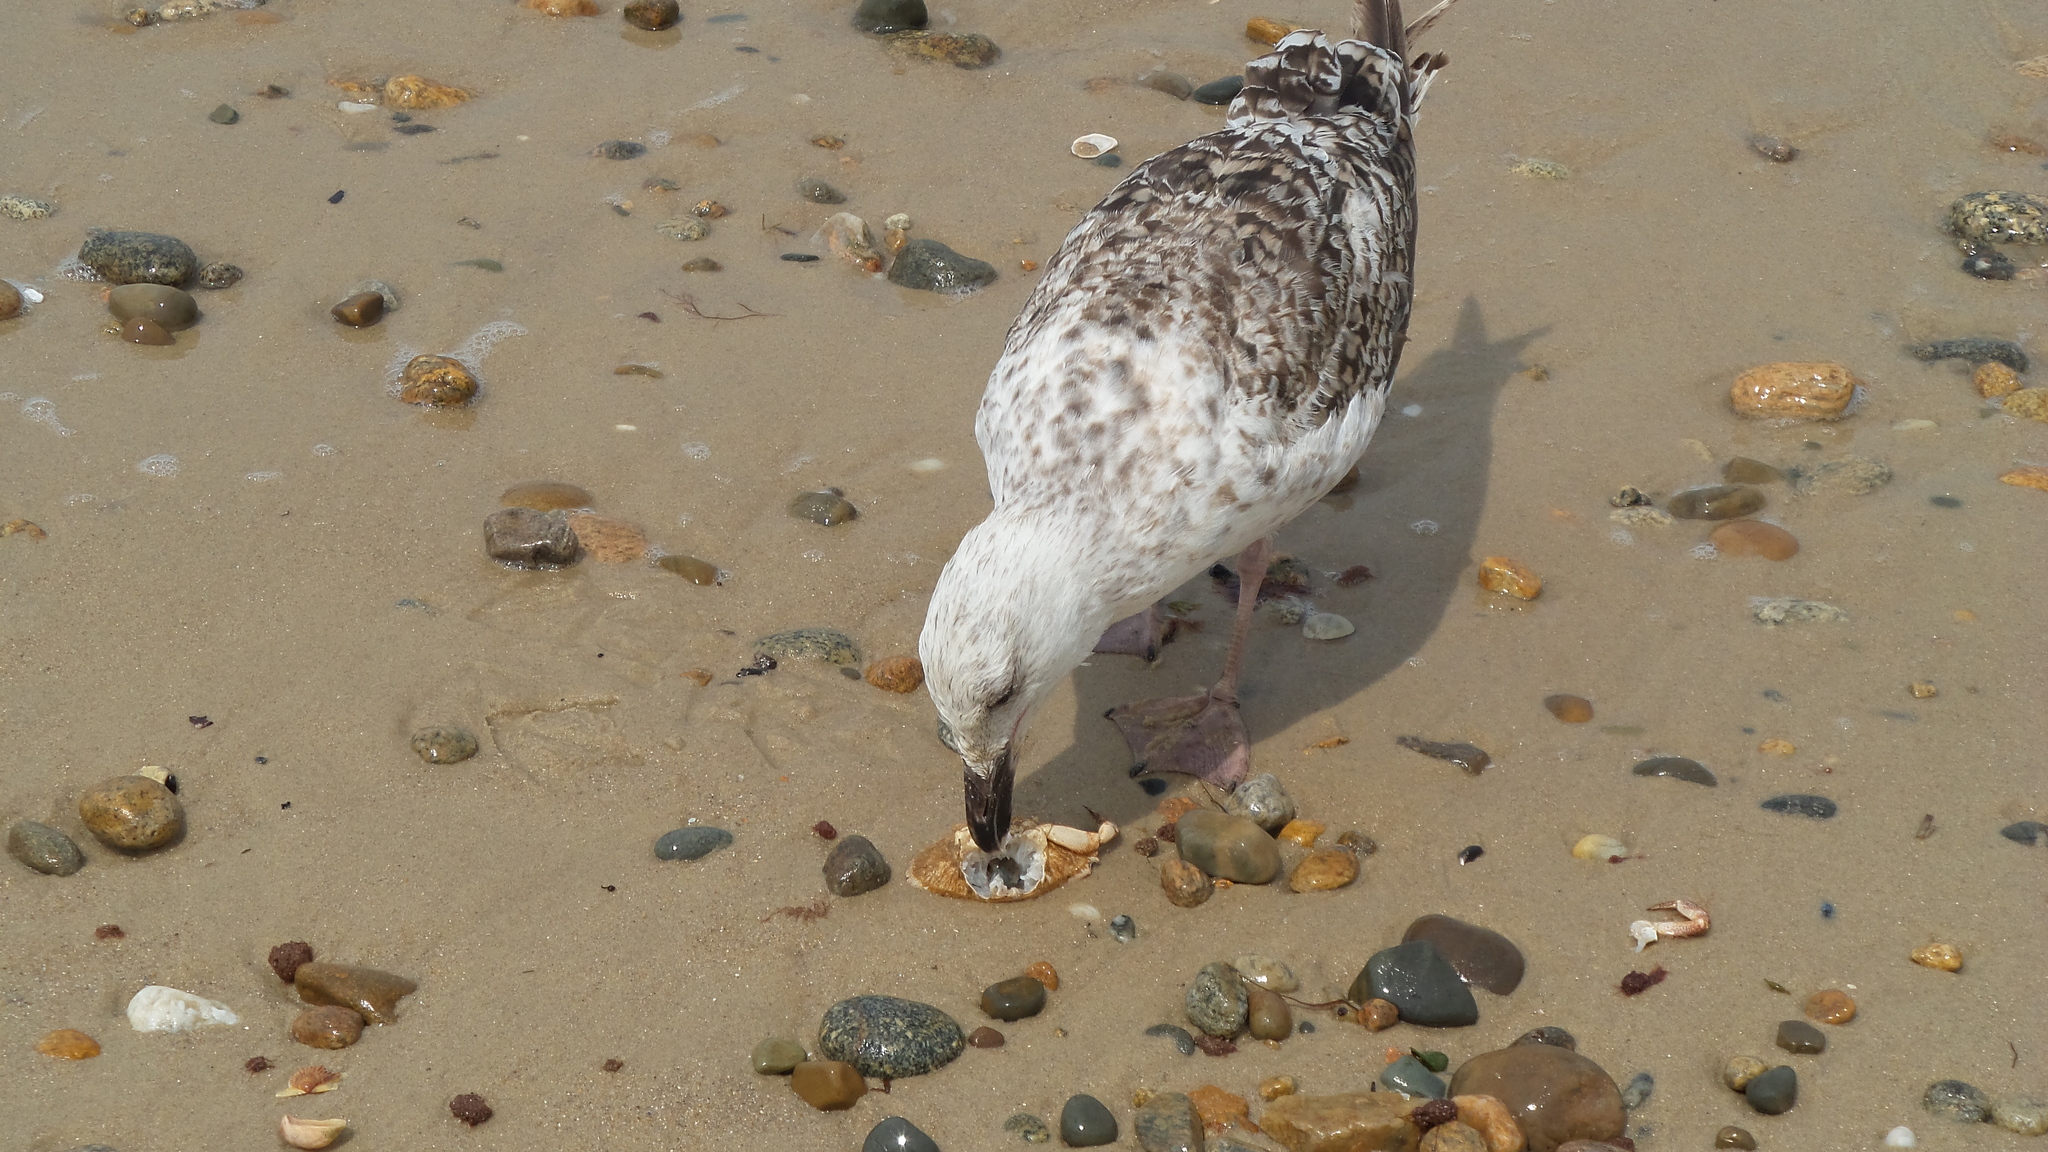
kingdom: Animalia
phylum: Chordata
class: Aves
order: Charadriiformes
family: Laridae
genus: Larus
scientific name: Larus marinus
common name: Great black-backed gull
